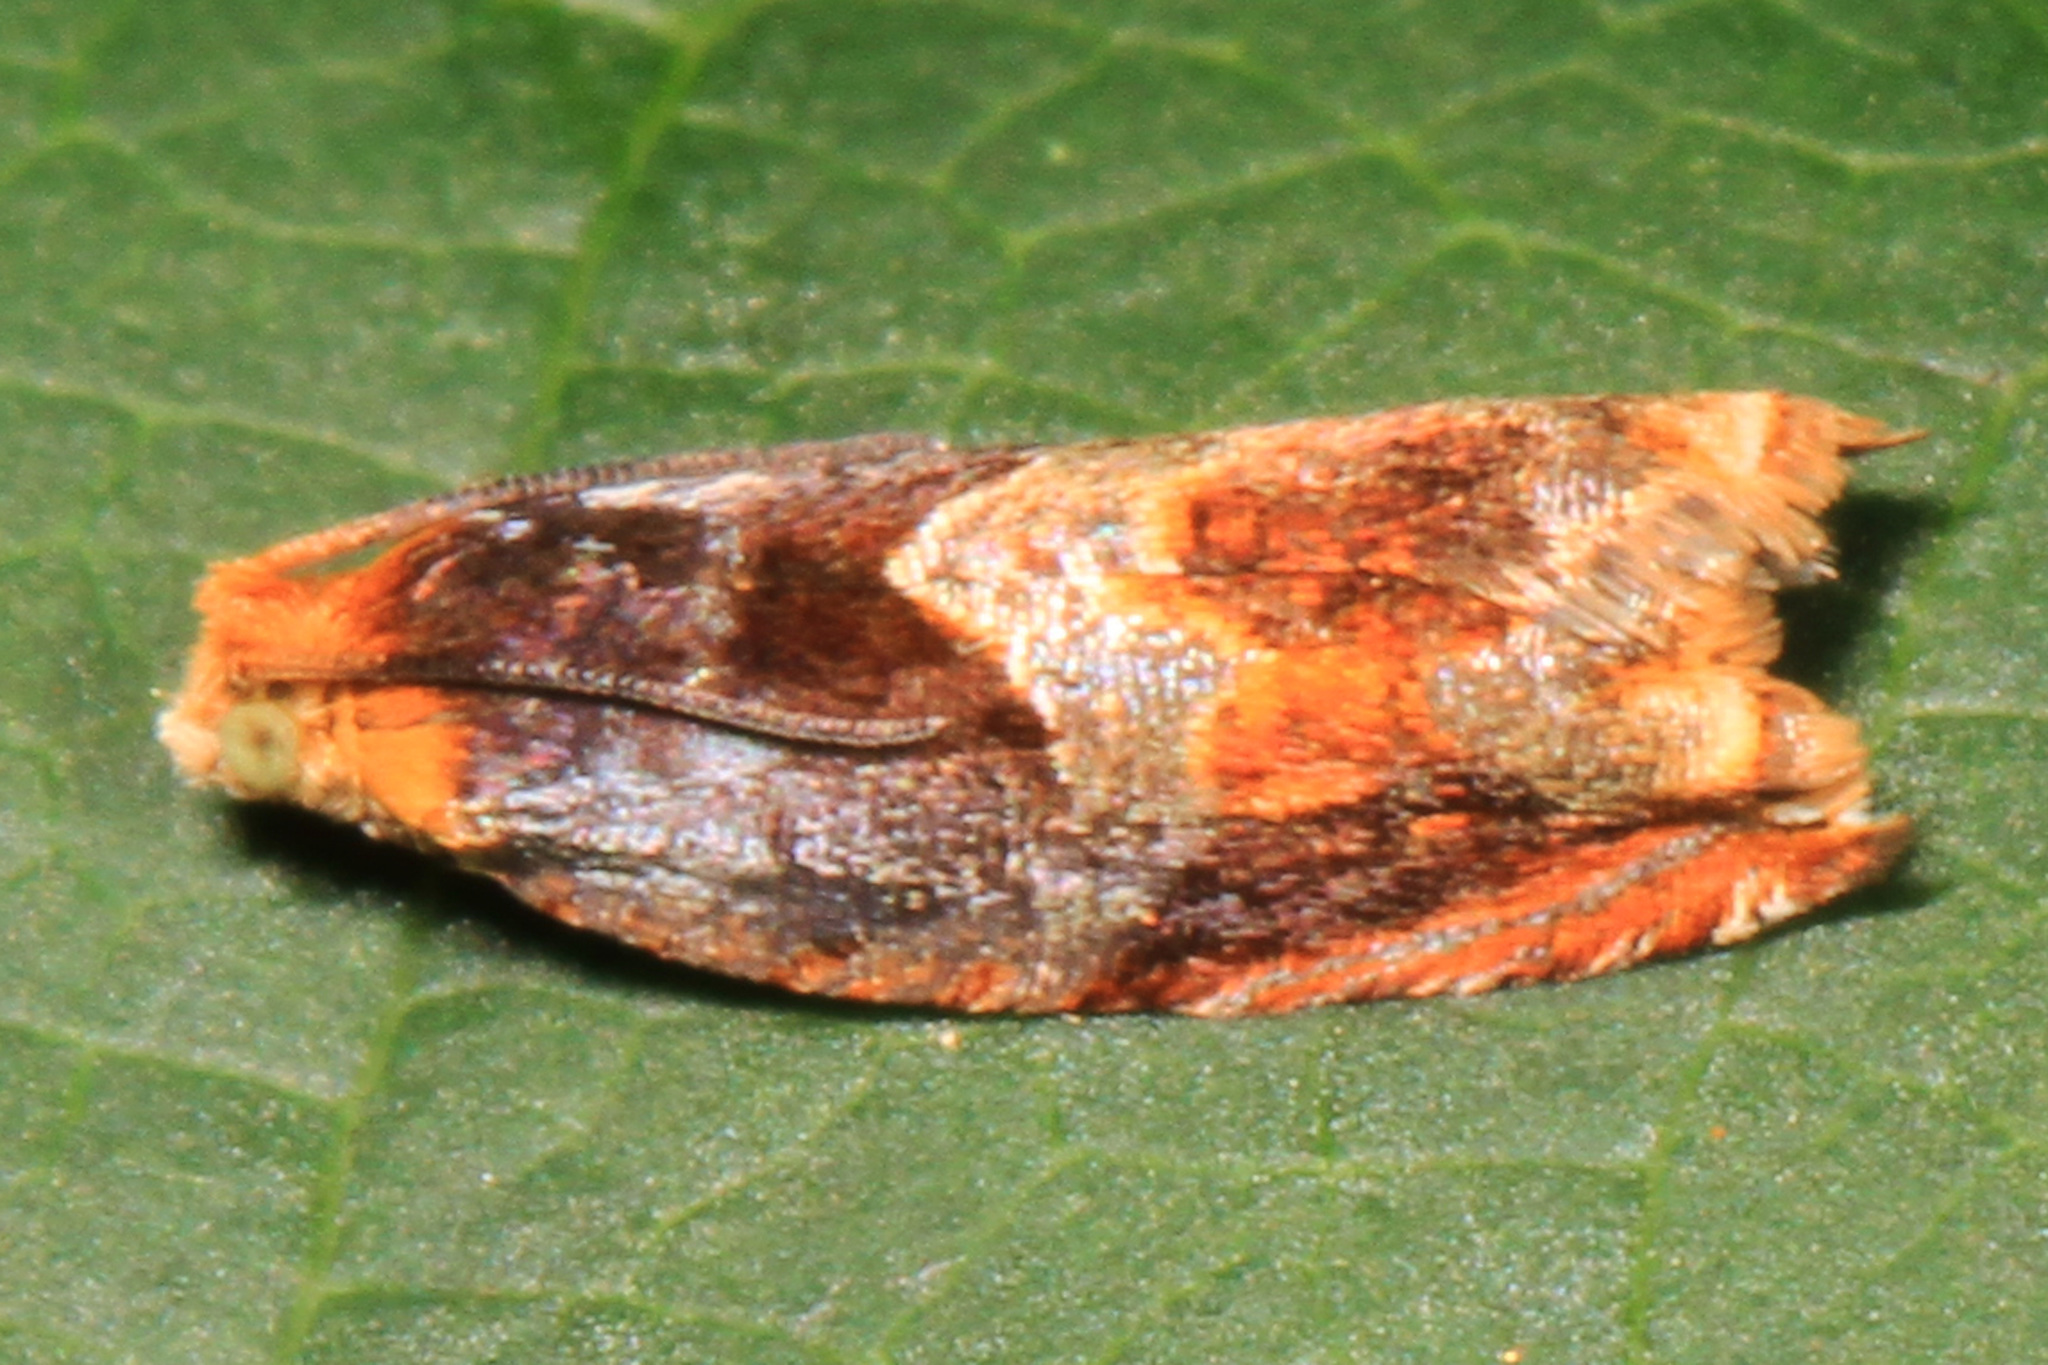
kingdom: Animalia
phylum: Arthropoda
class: Insecta
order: Lepidoptera
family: Tortricidae
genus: Ancylis
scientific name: Ancylis muricana
